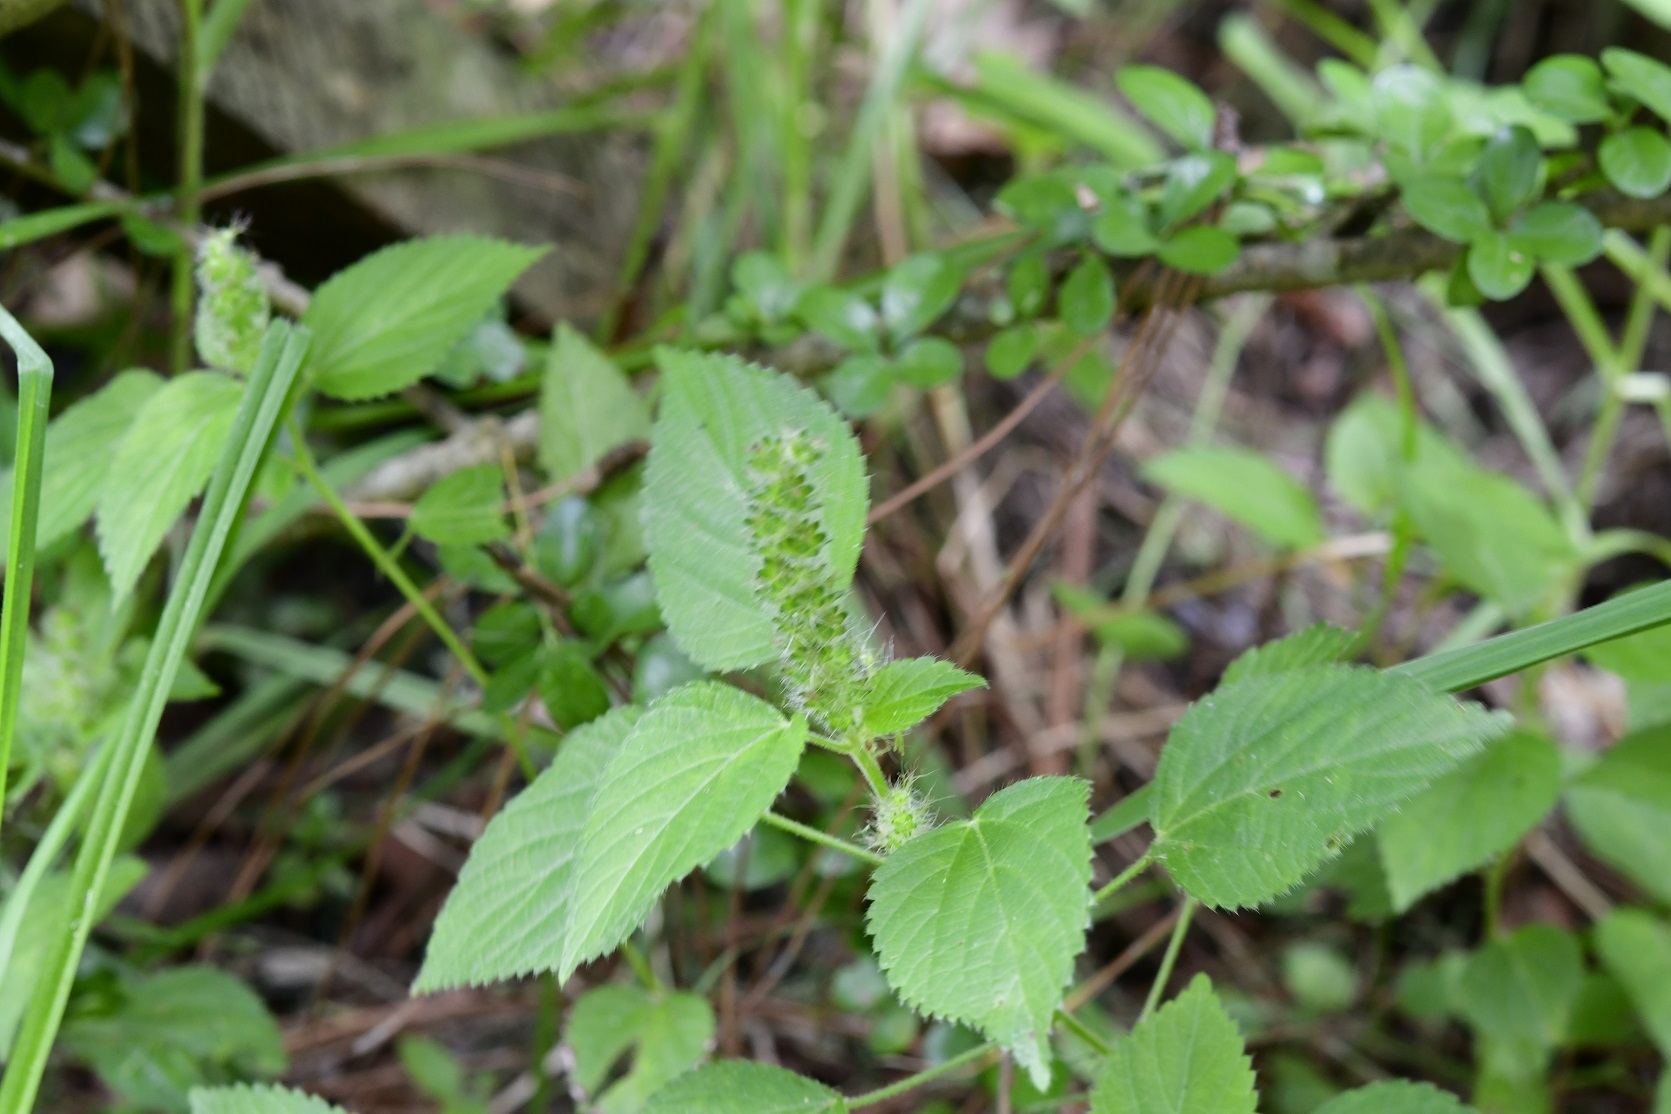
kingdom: Plantae
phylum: Tracheophyta
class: Magnoliopsida
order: Malpighiales
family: Euphorbiaceae
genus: Acalypha
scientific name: Acalypha phleoides
